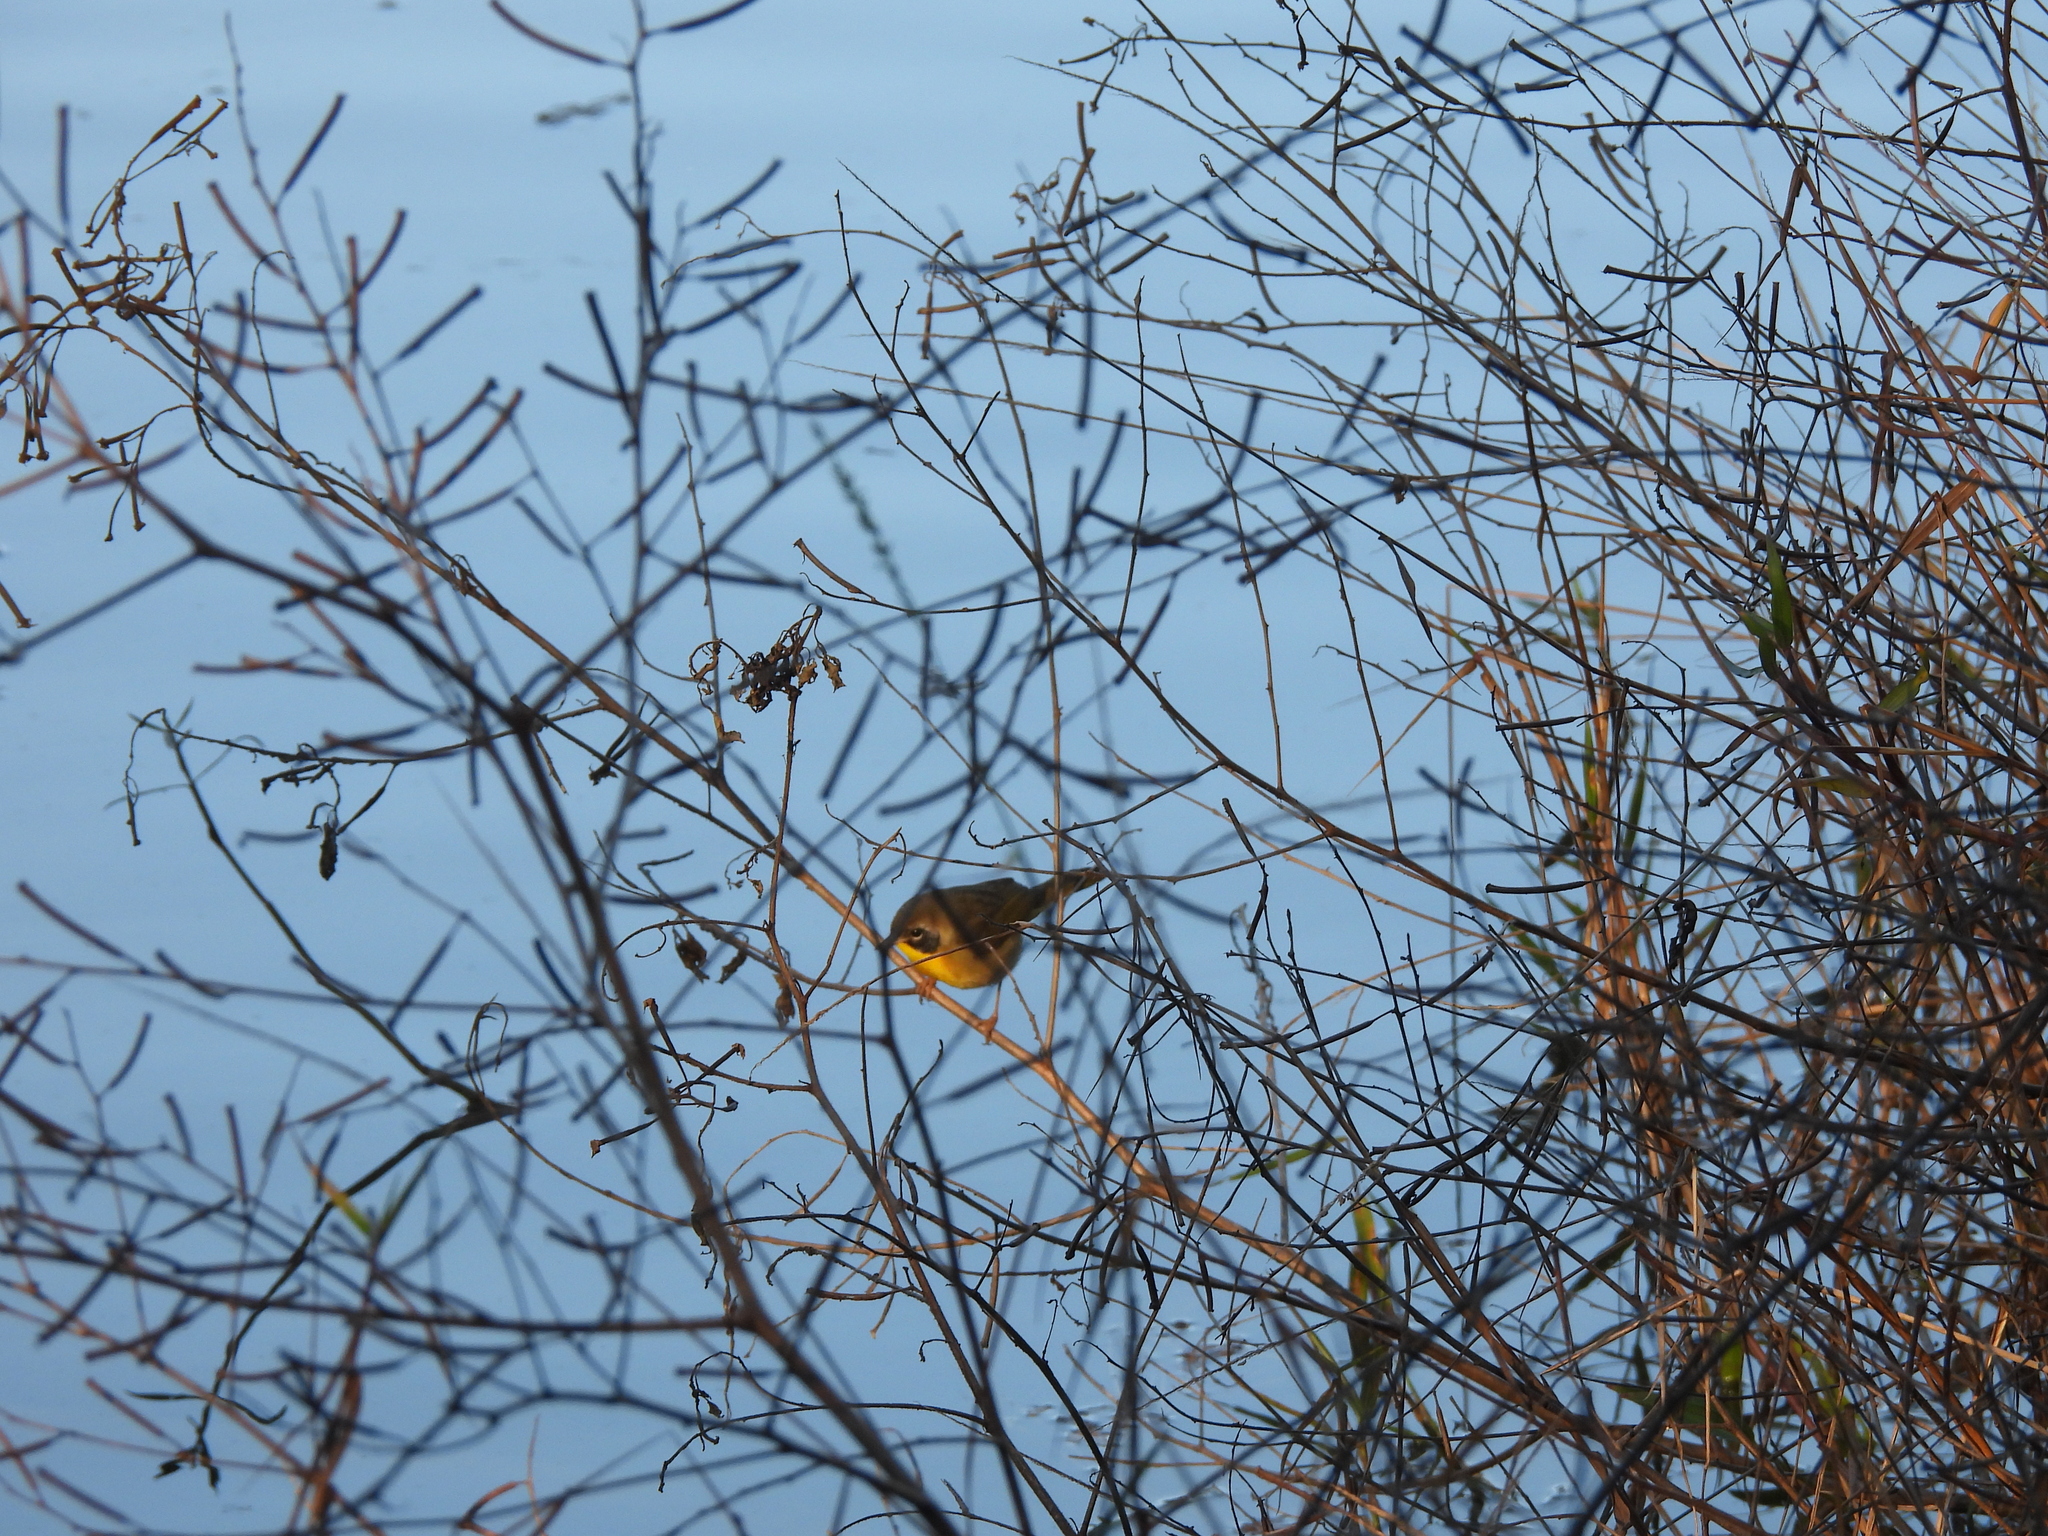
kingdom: Animalia
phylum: Chordata
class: Aves
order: Passeriformes
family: Parulidae
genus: Geothlypis
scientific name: Geothlypis trichas
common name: Common yellowthroat
